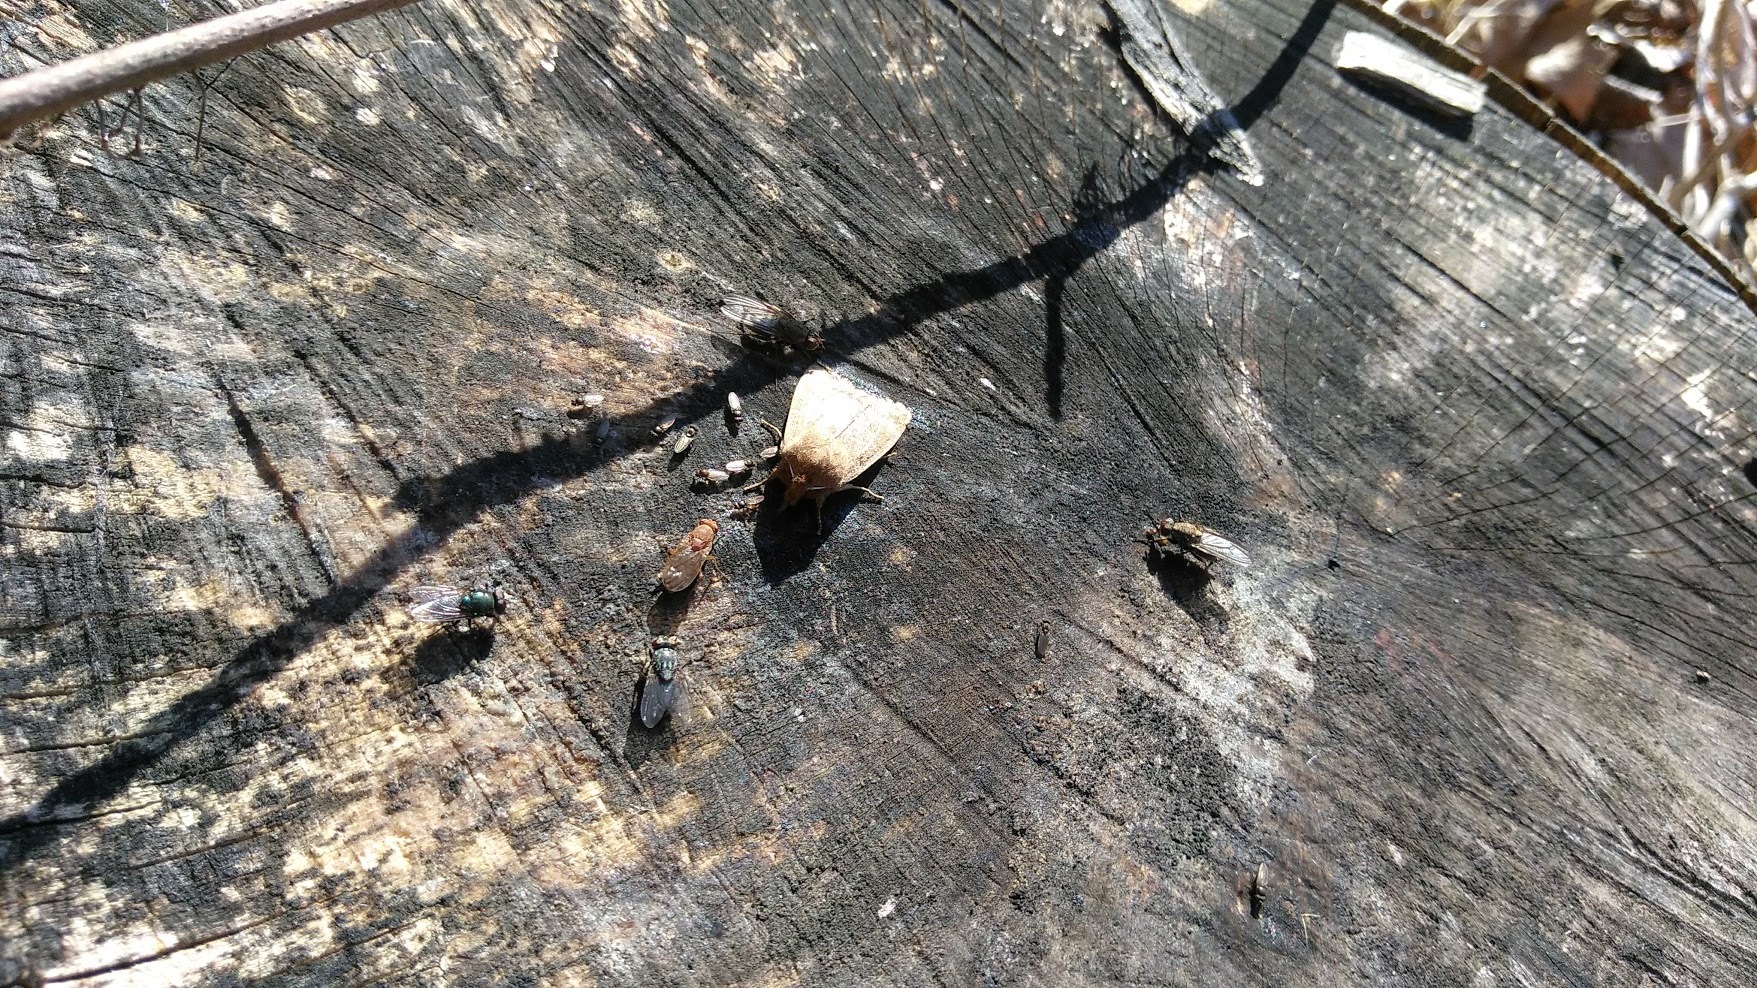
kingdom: Animalia
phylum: Arthropoda
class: Insecta
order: Diptera
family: Calliphoridae
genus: Phormia
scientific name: Phormia regina
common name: Black blow fly
